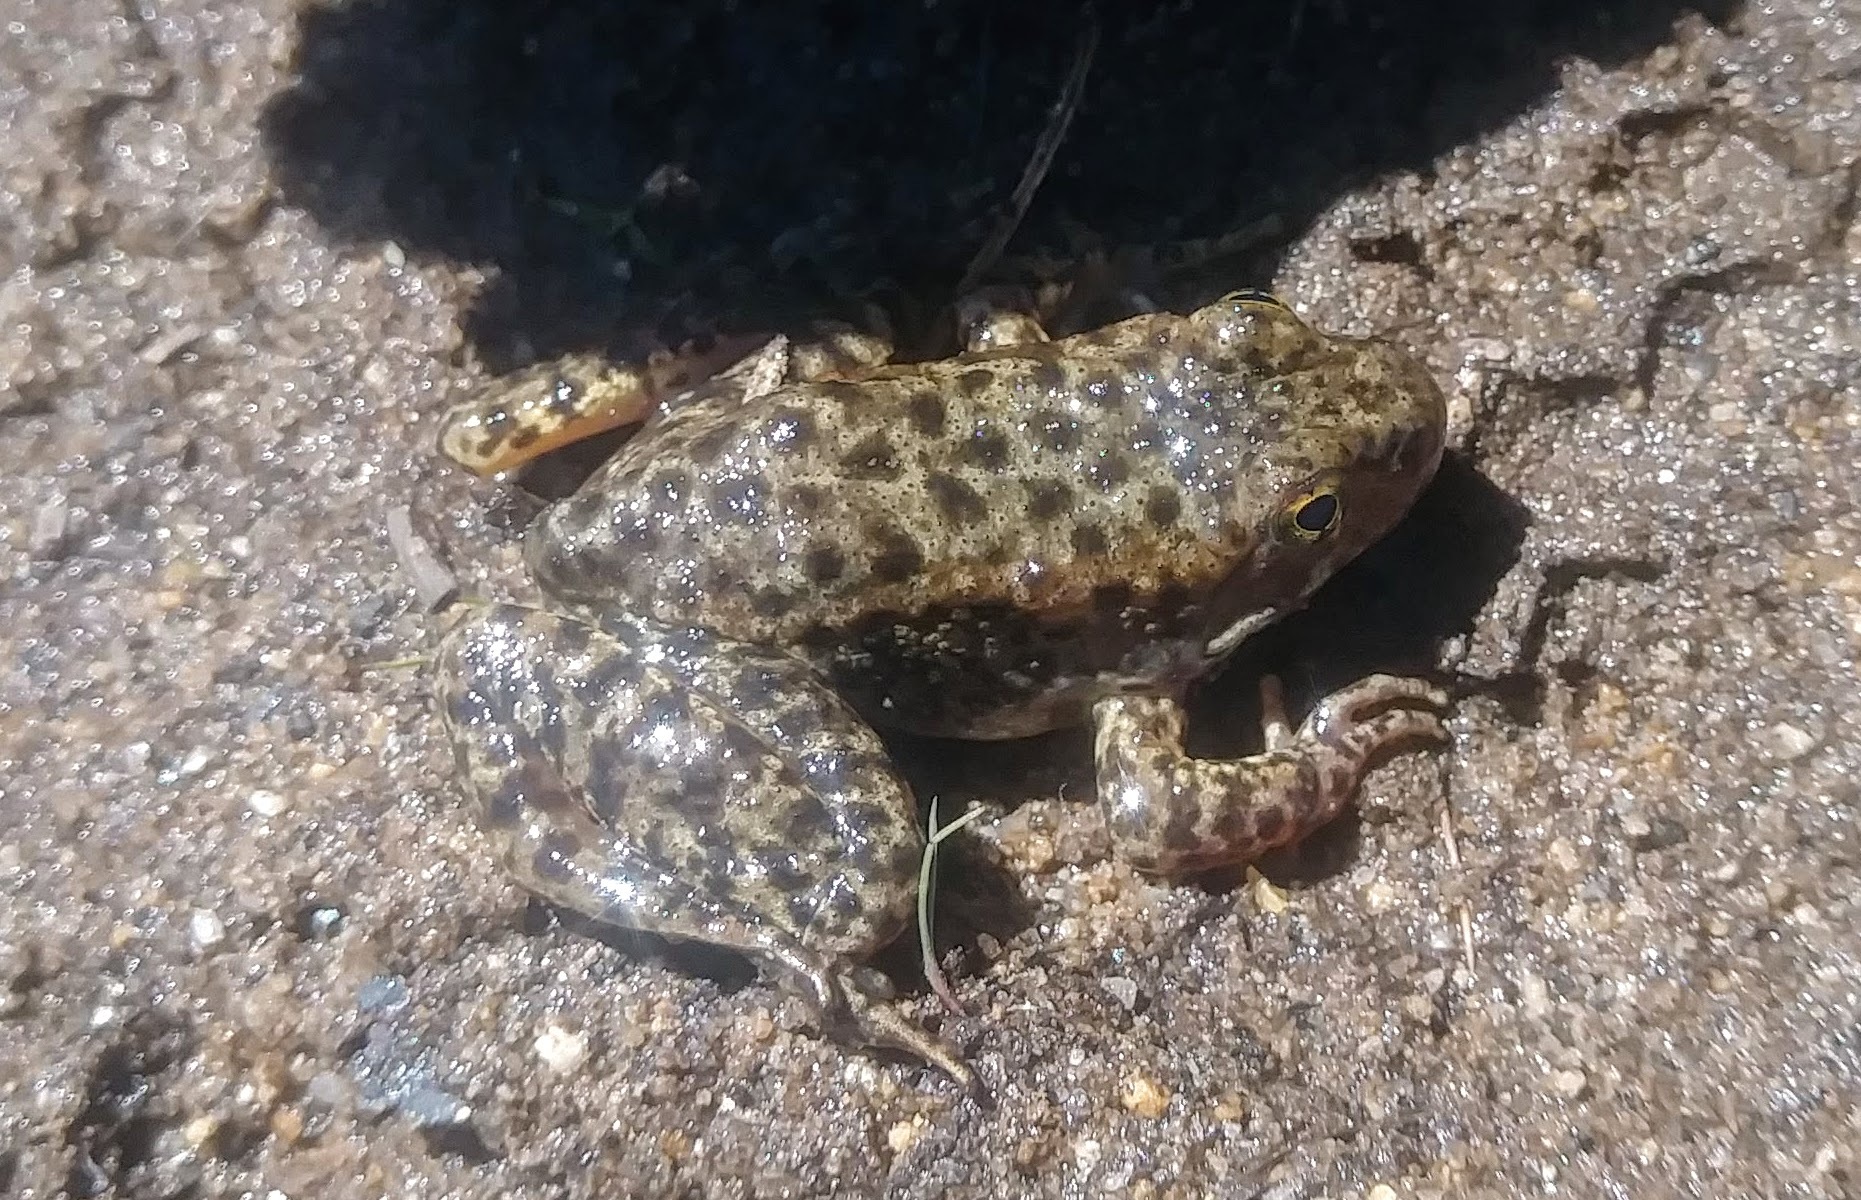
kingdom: Animalia
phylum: Chordata
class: Amphibia
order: Anura
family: Ranidae
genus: Rana
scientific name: Rana sierrae
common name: Sierra nevada yellow-legged frog
